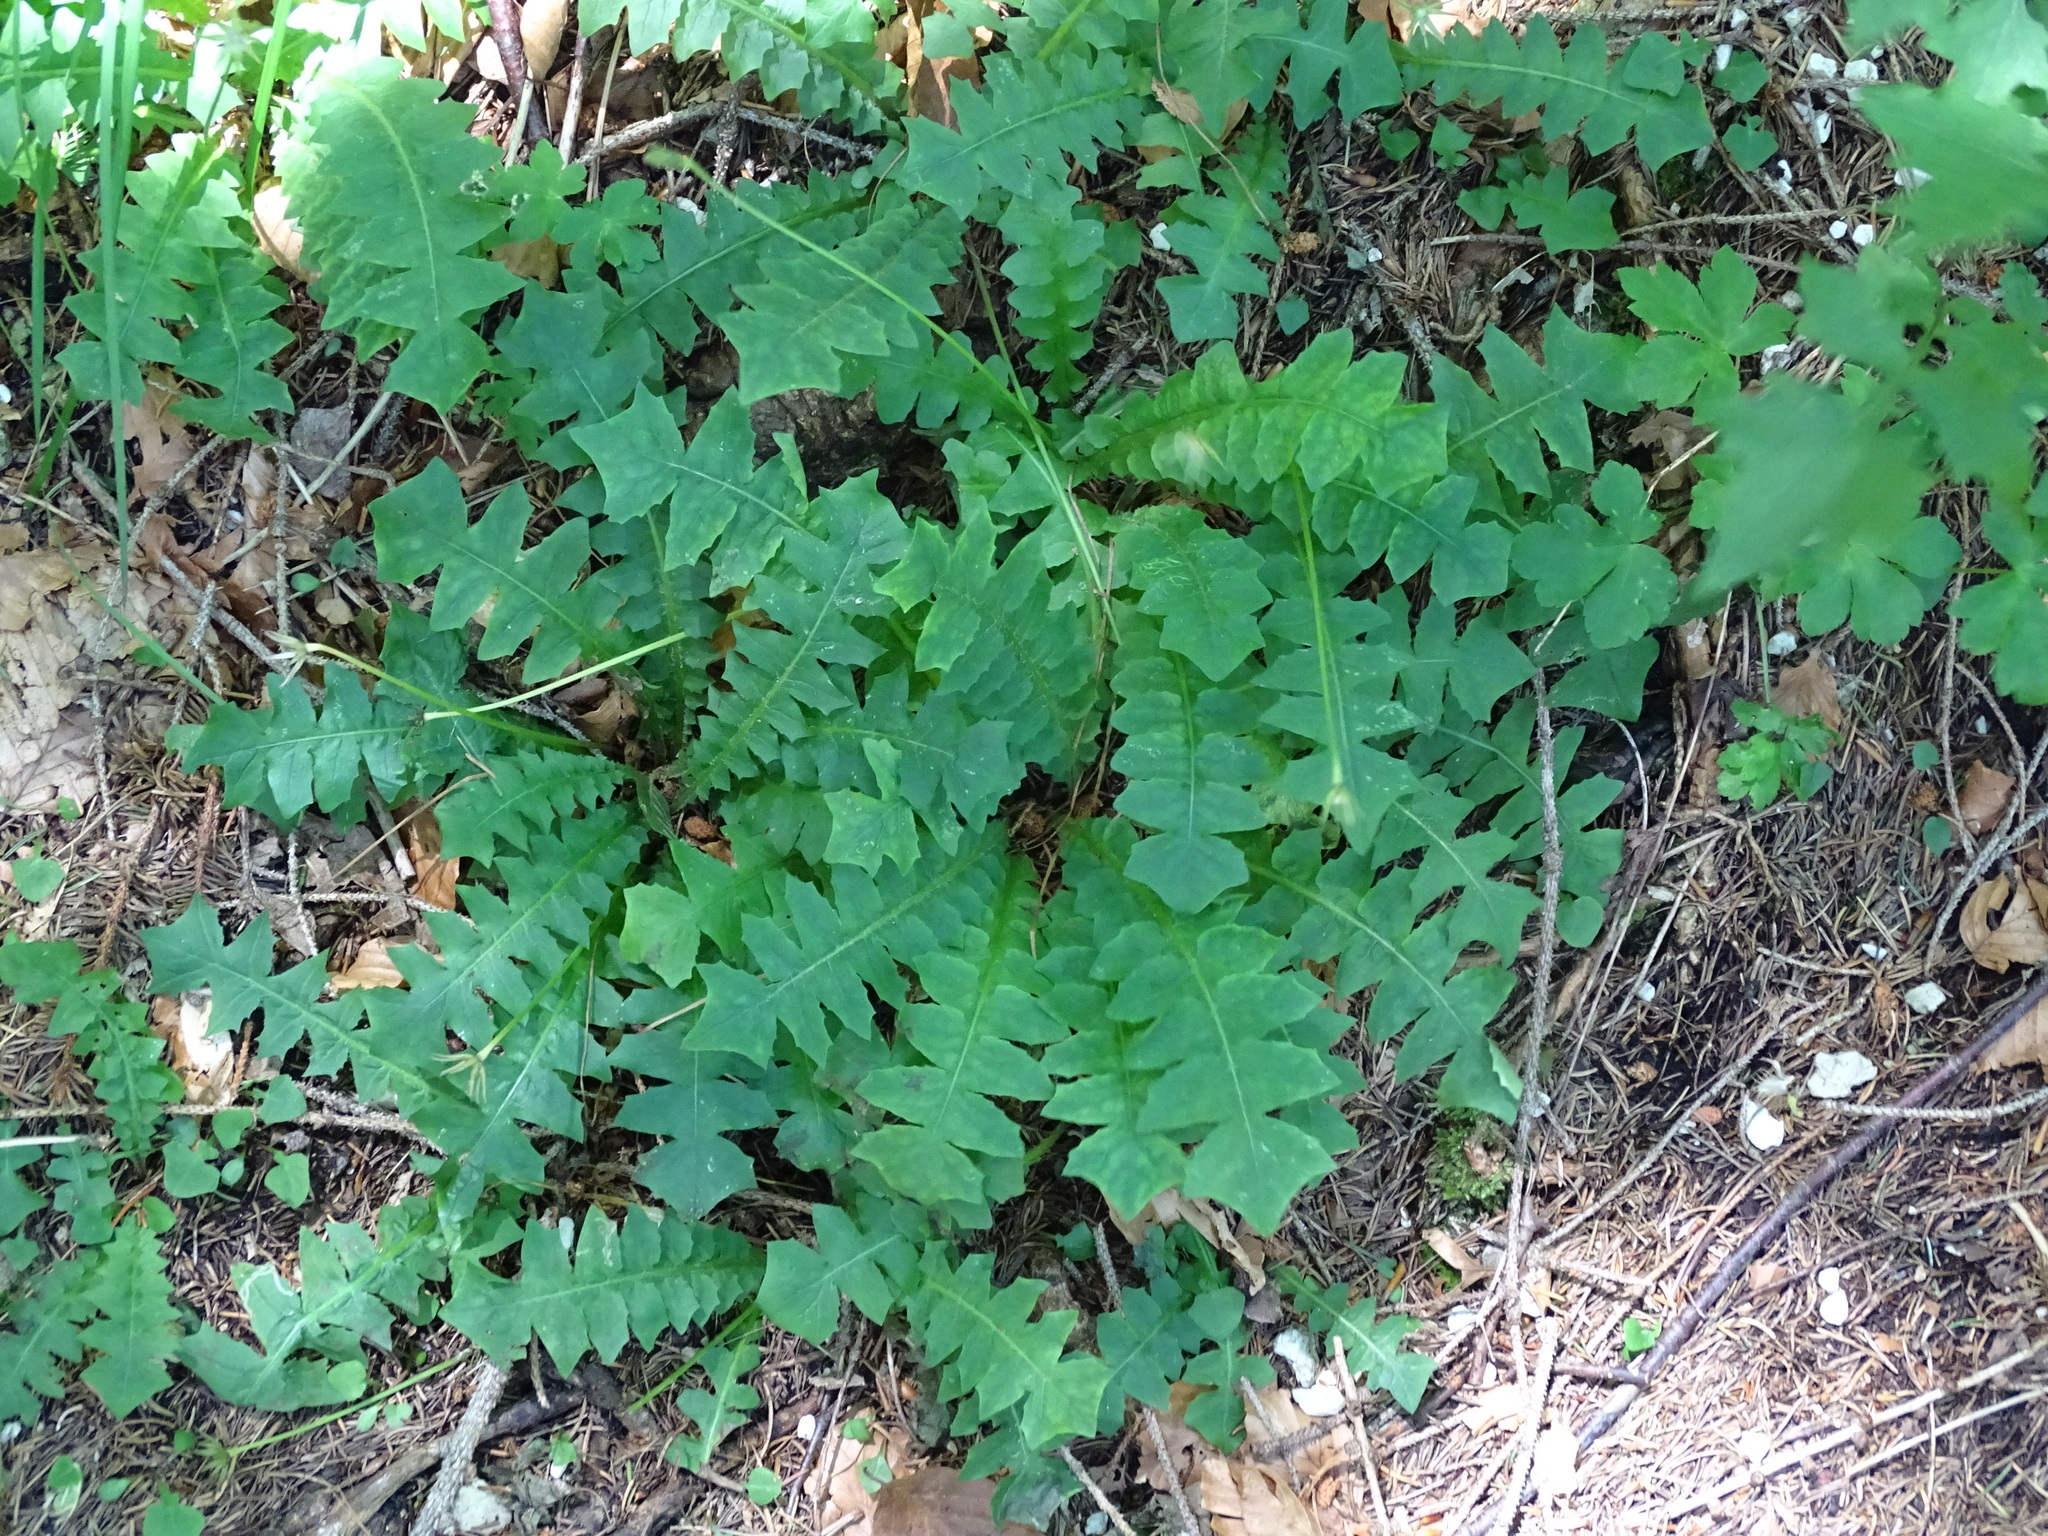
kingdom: Plantae
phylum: Tracheophyta
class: Magnoliopsida
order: Asterales
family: Asteraceae
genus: Aposeris
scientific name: Aposeris foetida
